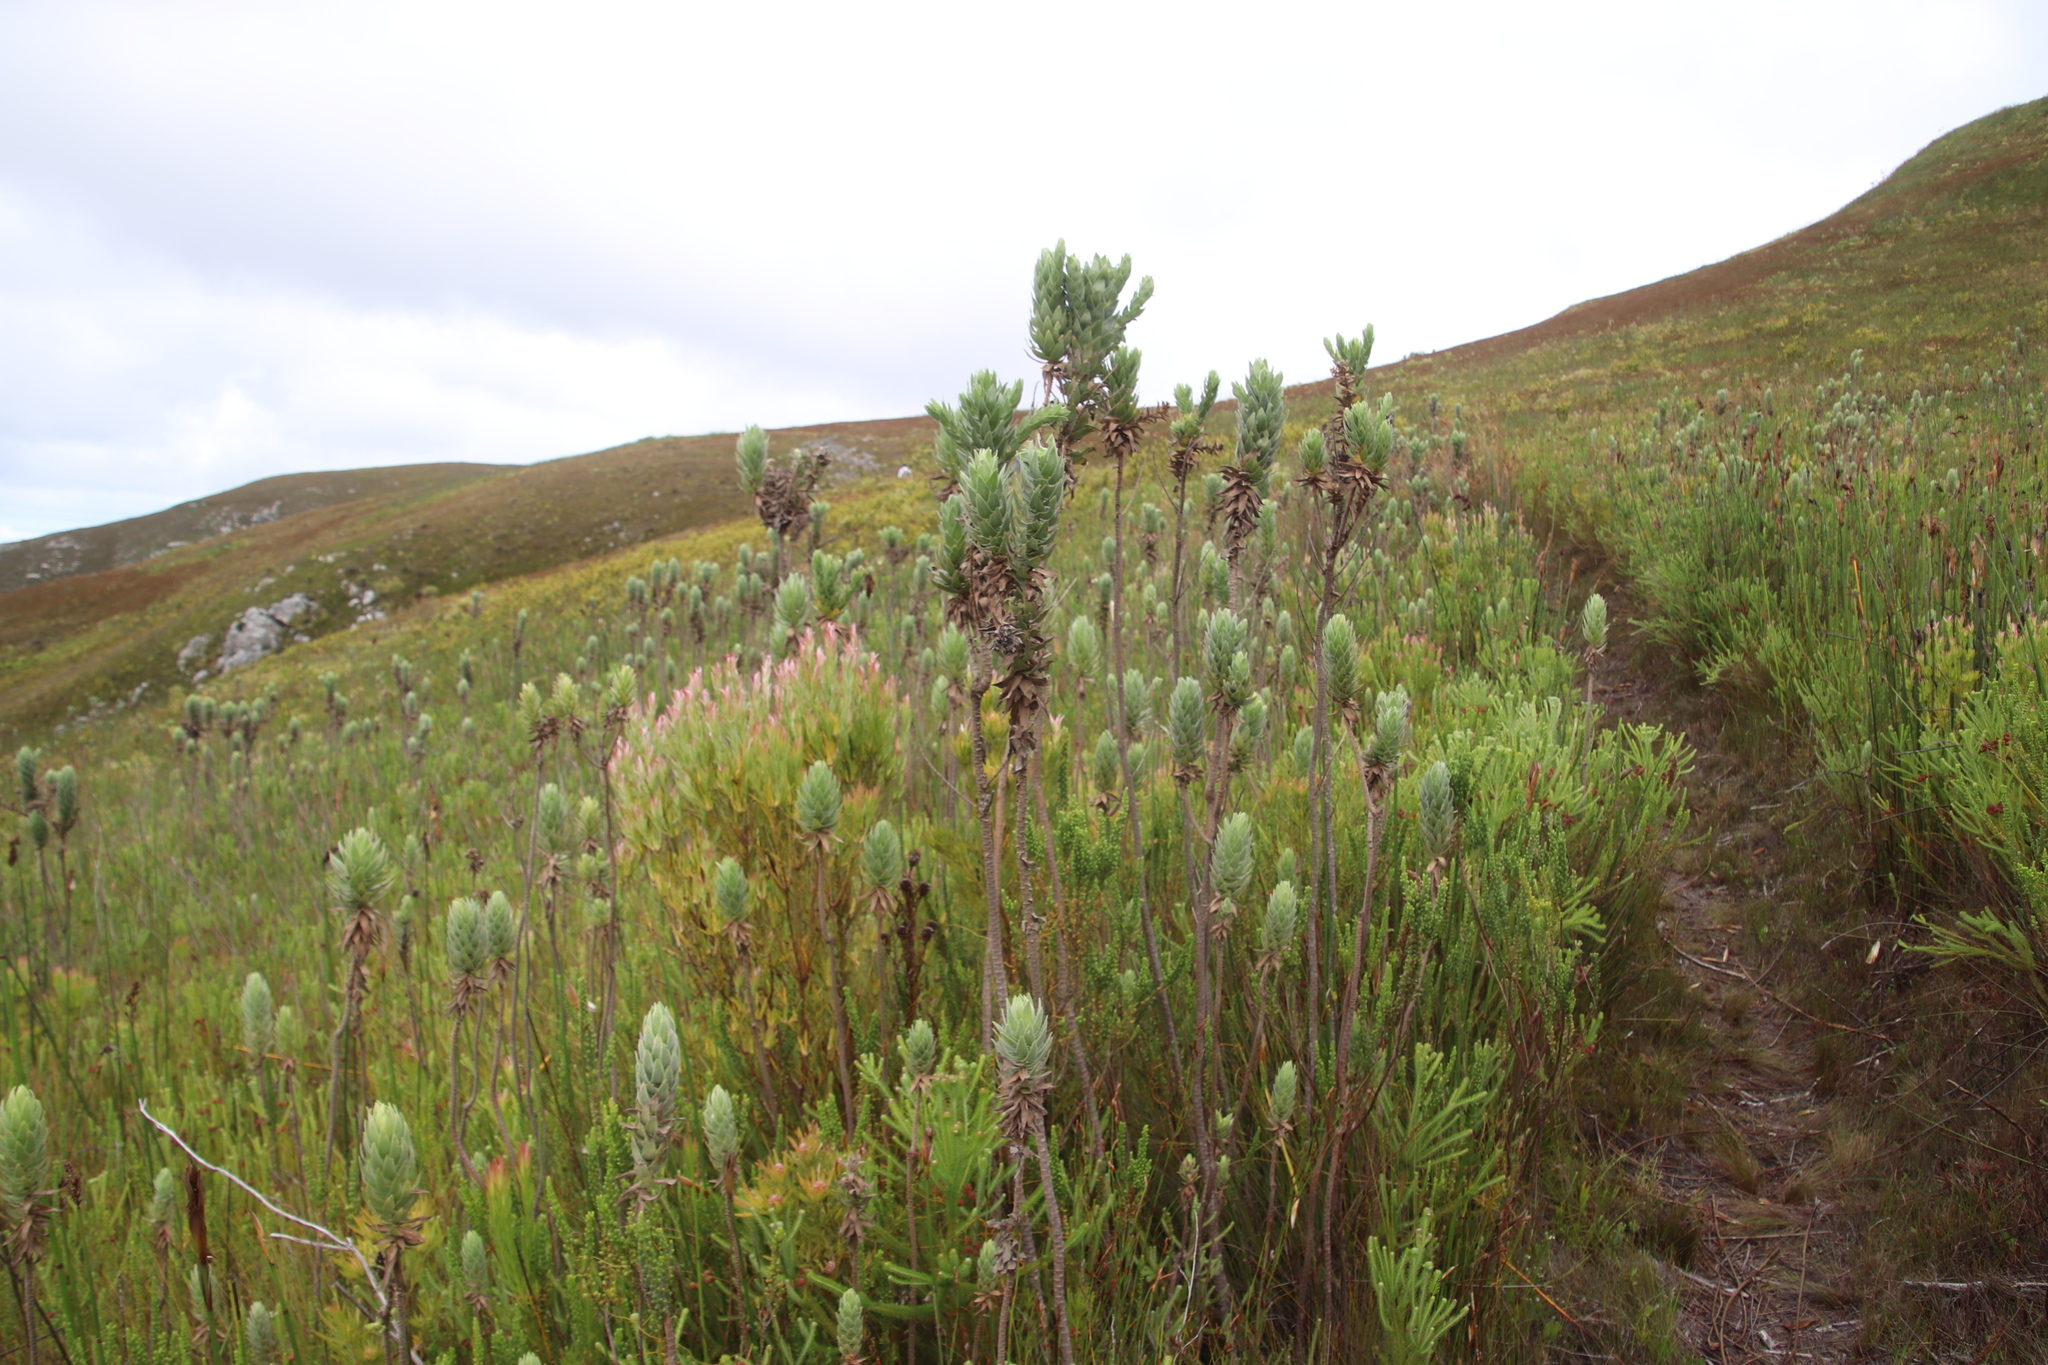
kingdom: Plantae
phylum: Tracheophyta
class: Magnoliopsida
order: Proteales
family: Proteaceae
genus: Leucadendron
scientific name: Leucadendron xanthoconus
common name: Sickle-leaf conebush
